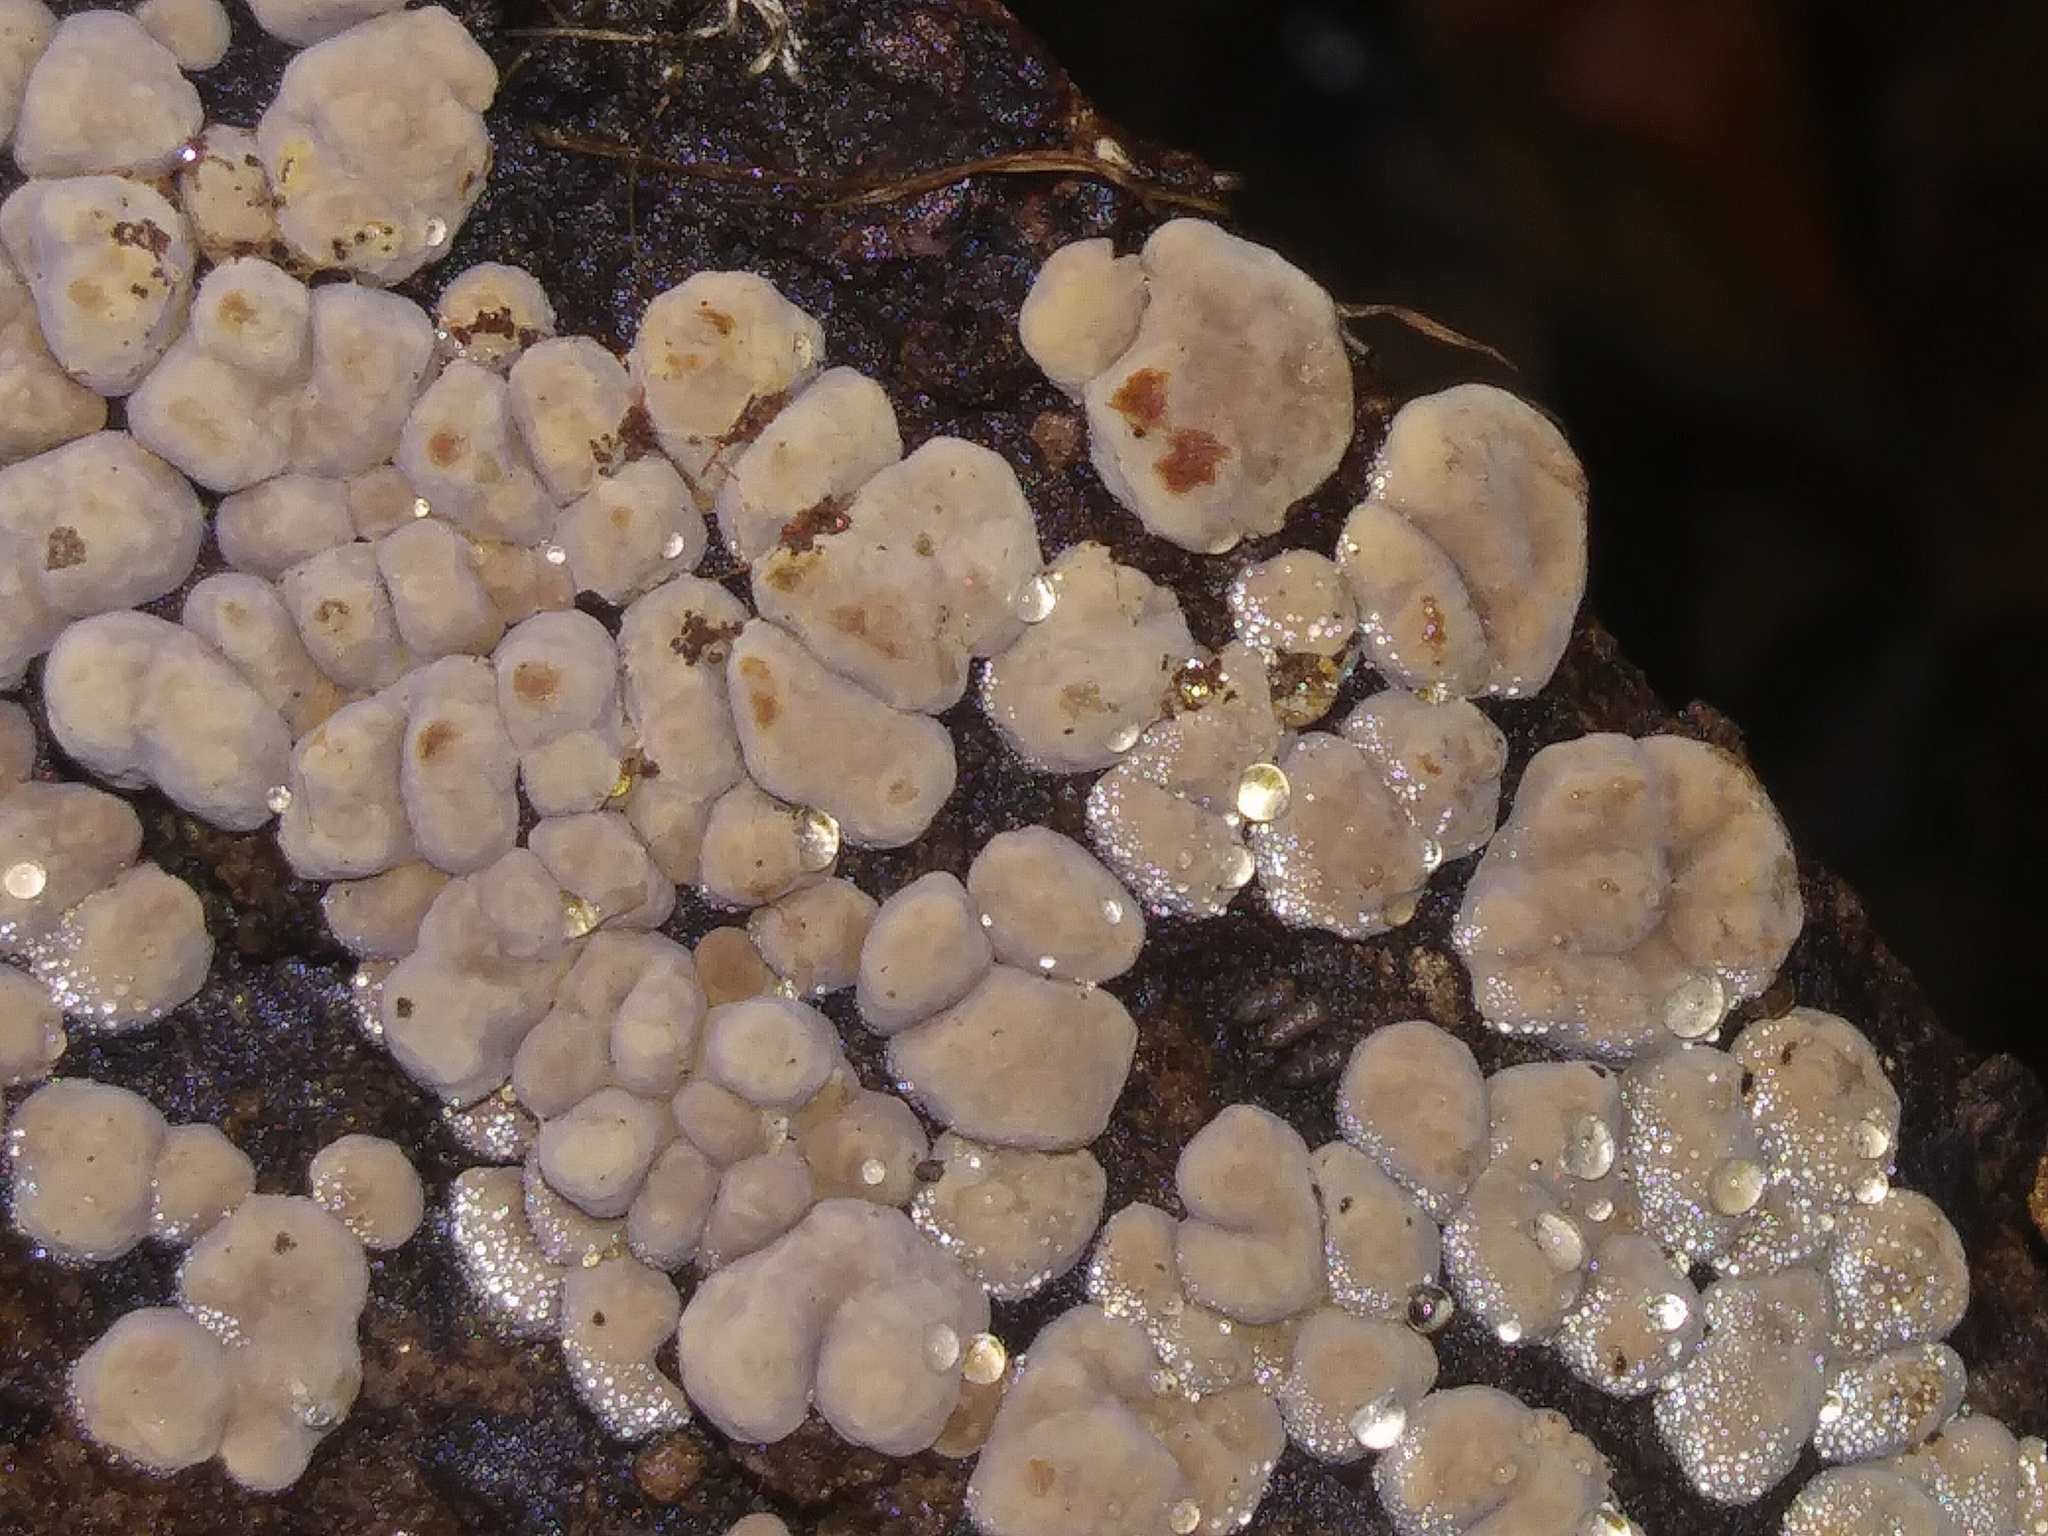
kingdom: Fungi
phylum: Basidiomycota
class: Agaricomycetes
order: Russulales
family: Stereaceae
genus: Xylobolus
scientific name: Xylobolus frustulatus
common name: Ceramic parchment
